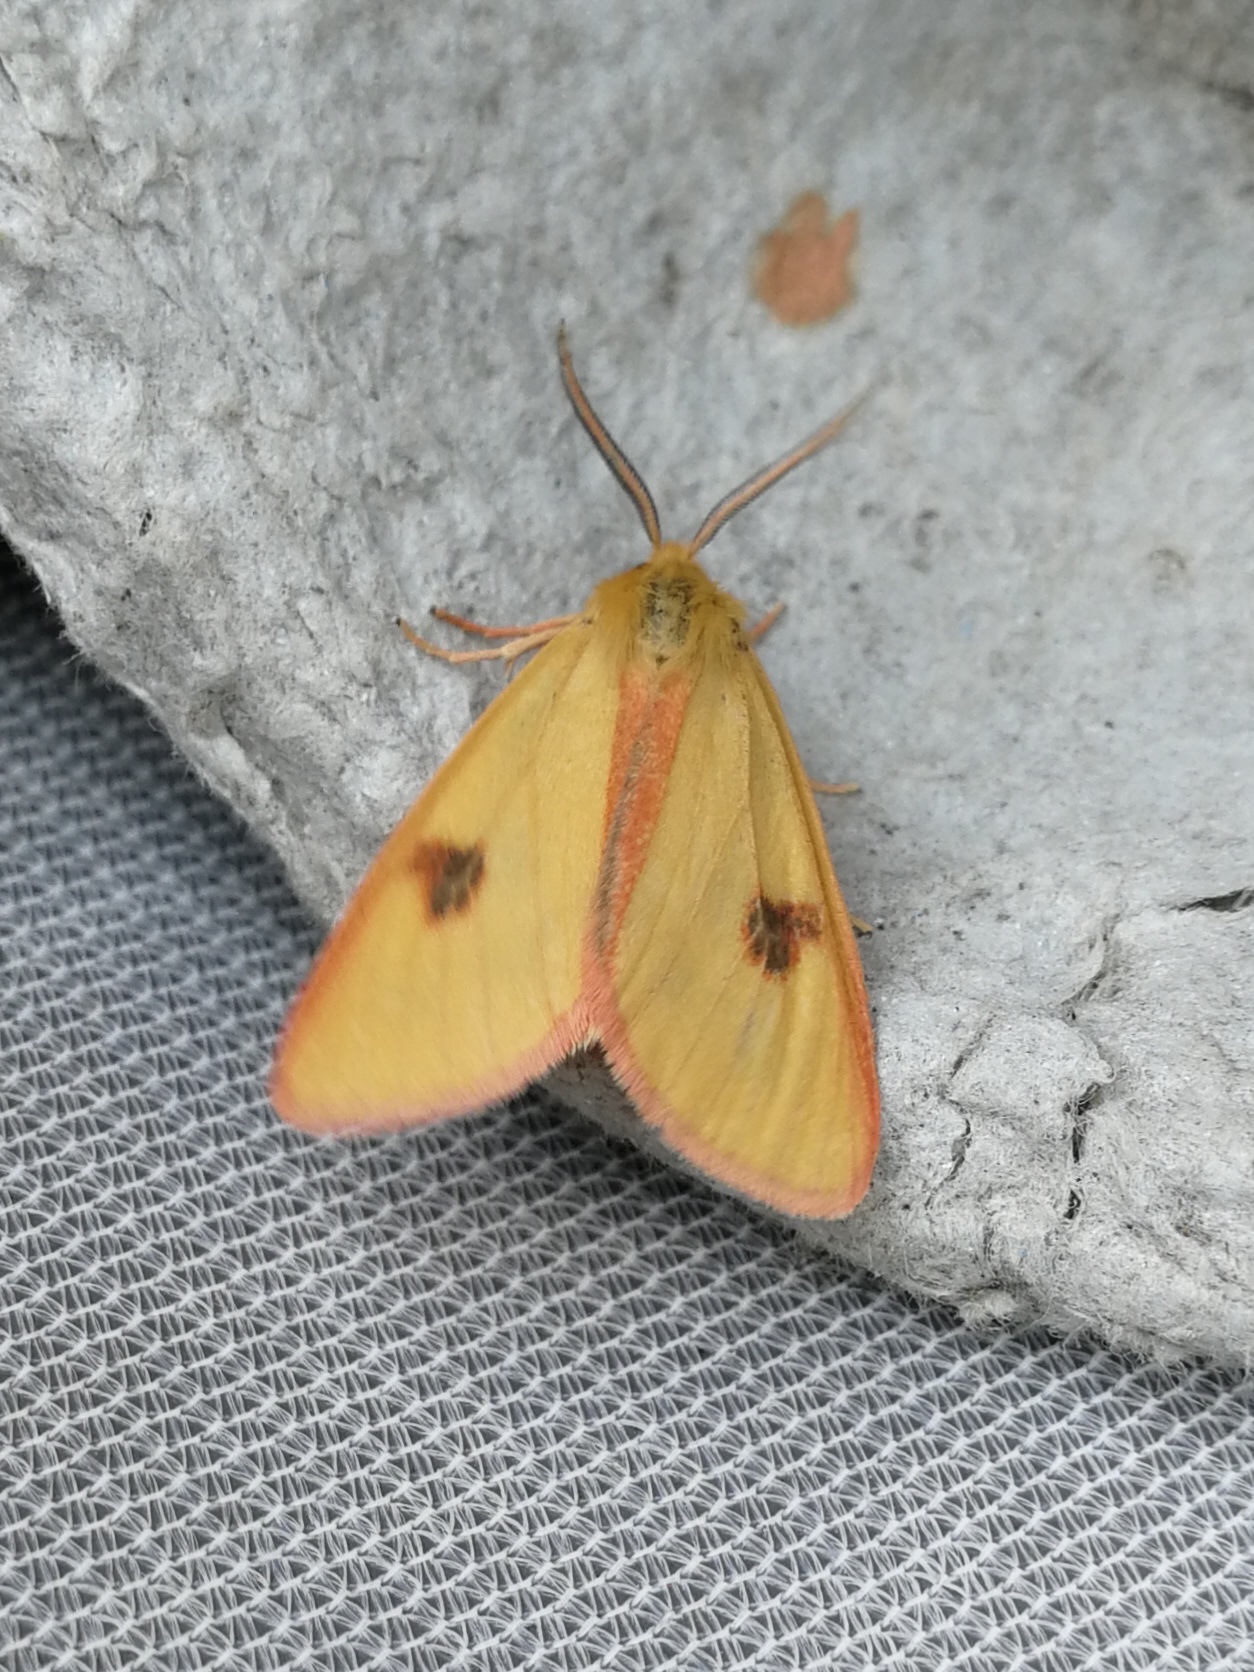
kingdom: Animalia
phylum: Arthropoda
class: Insecta
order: Lepidoptera
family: Erebidae
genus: Diacrisia
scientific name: Diacrisia sannio
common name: Clouded buff
